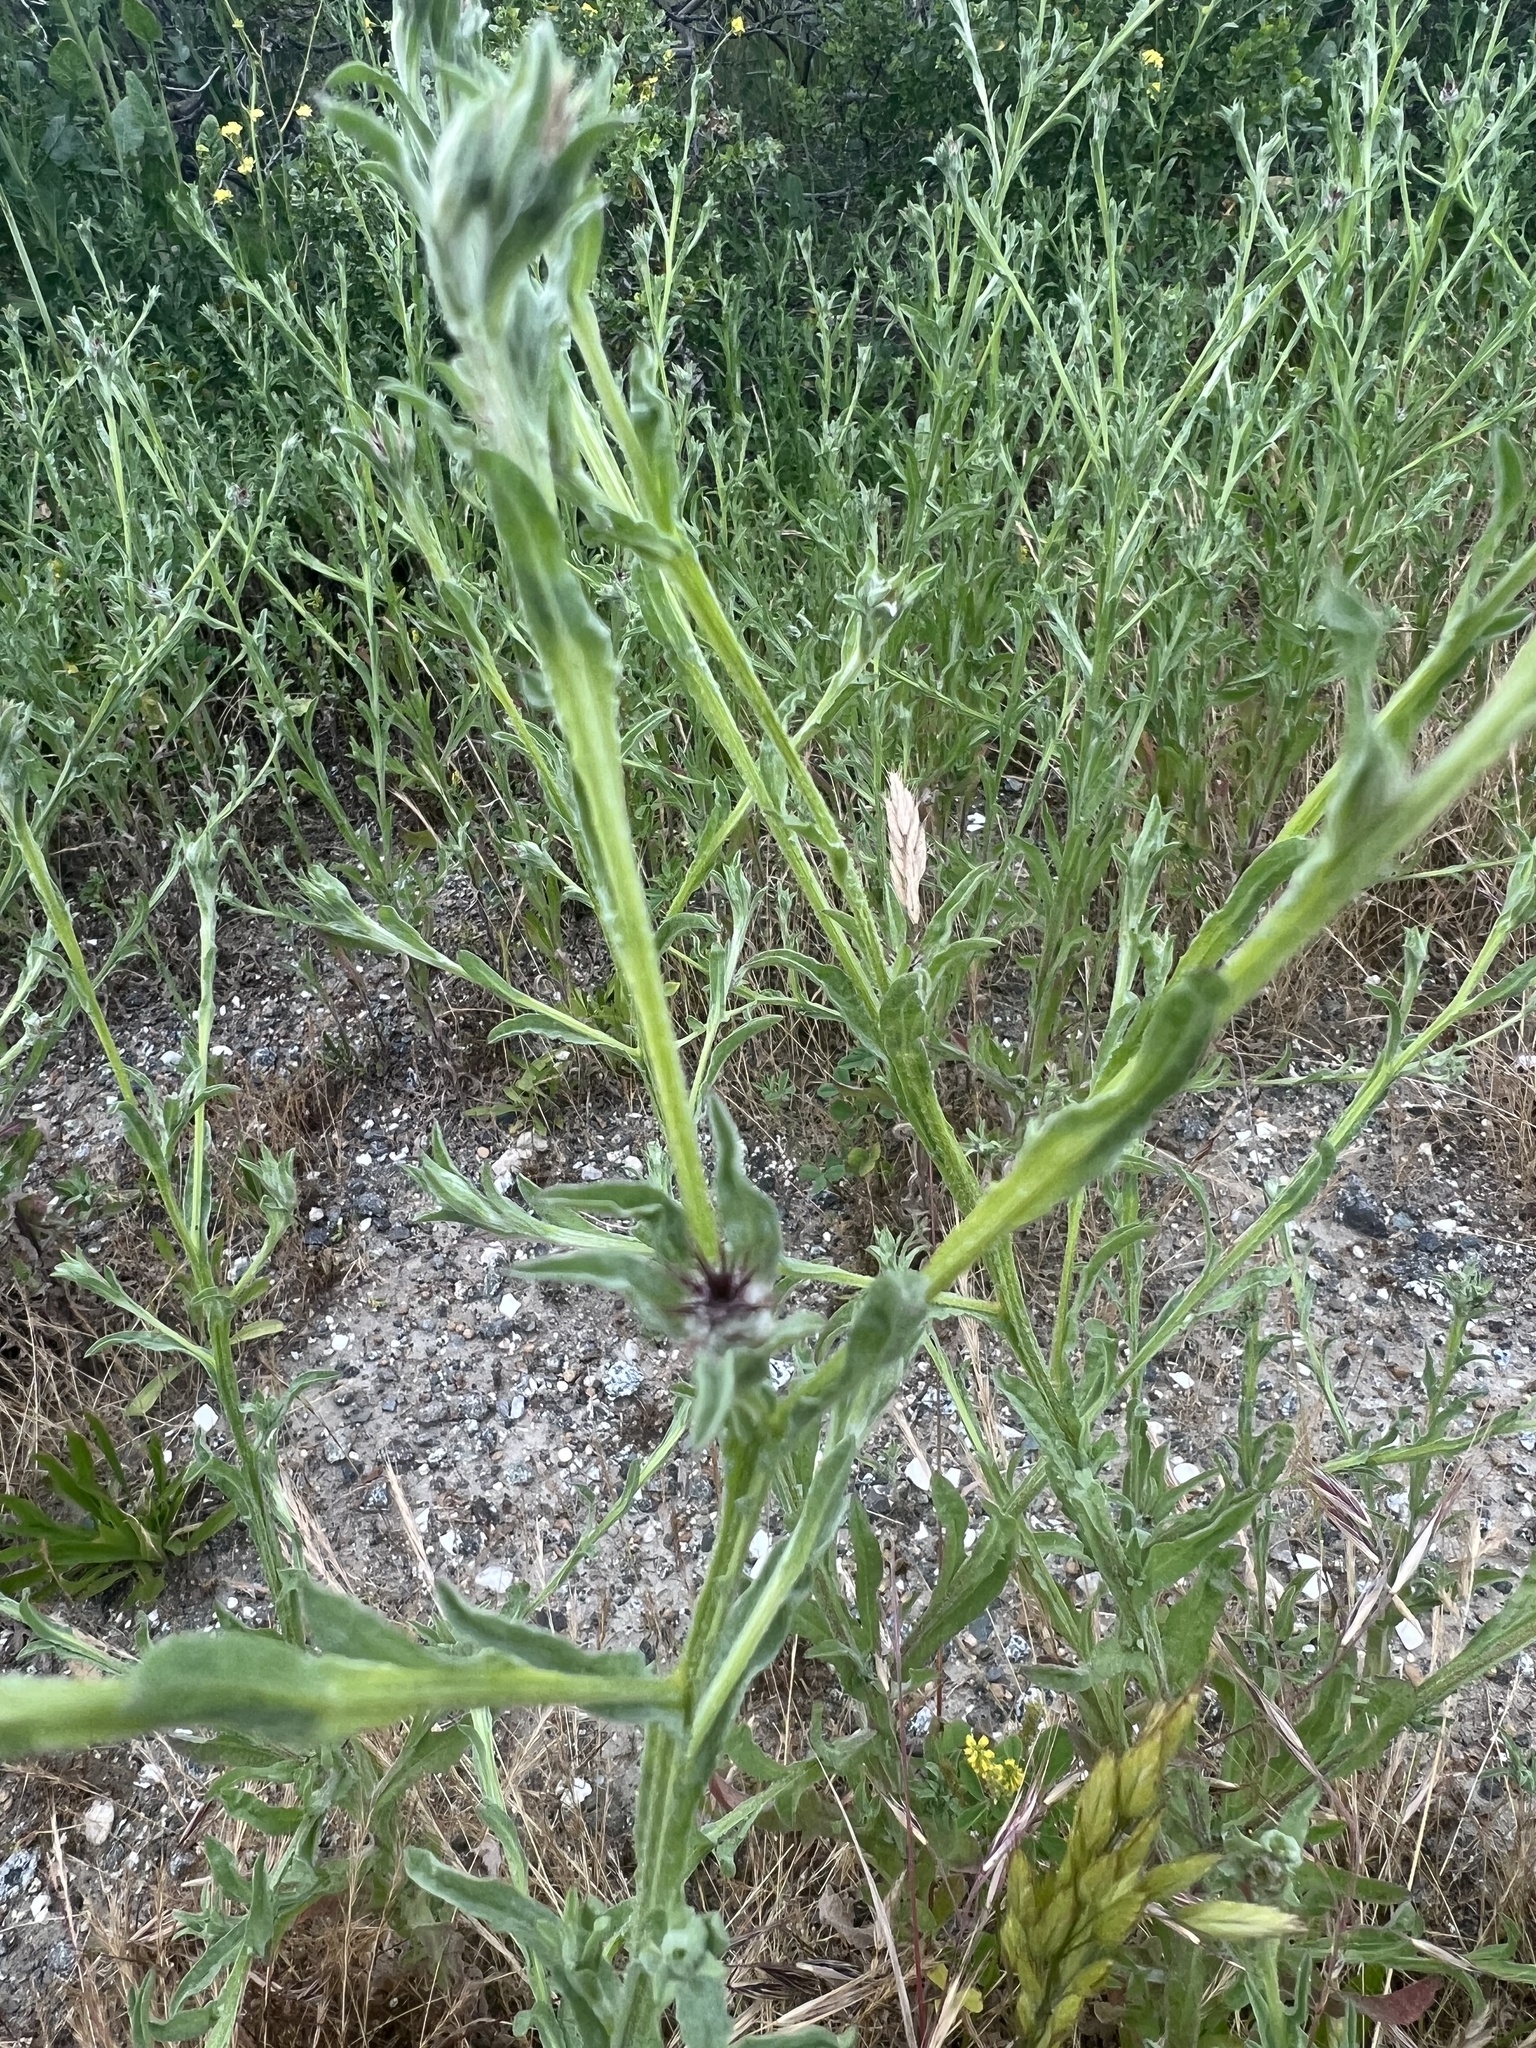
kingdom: Plantae
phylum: Tracheophyta
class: Magnoliopsida
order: Asterales
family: Asteraceae
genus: Centaurea
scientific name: Centaurea melitensis
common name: Maltese star-thistle
